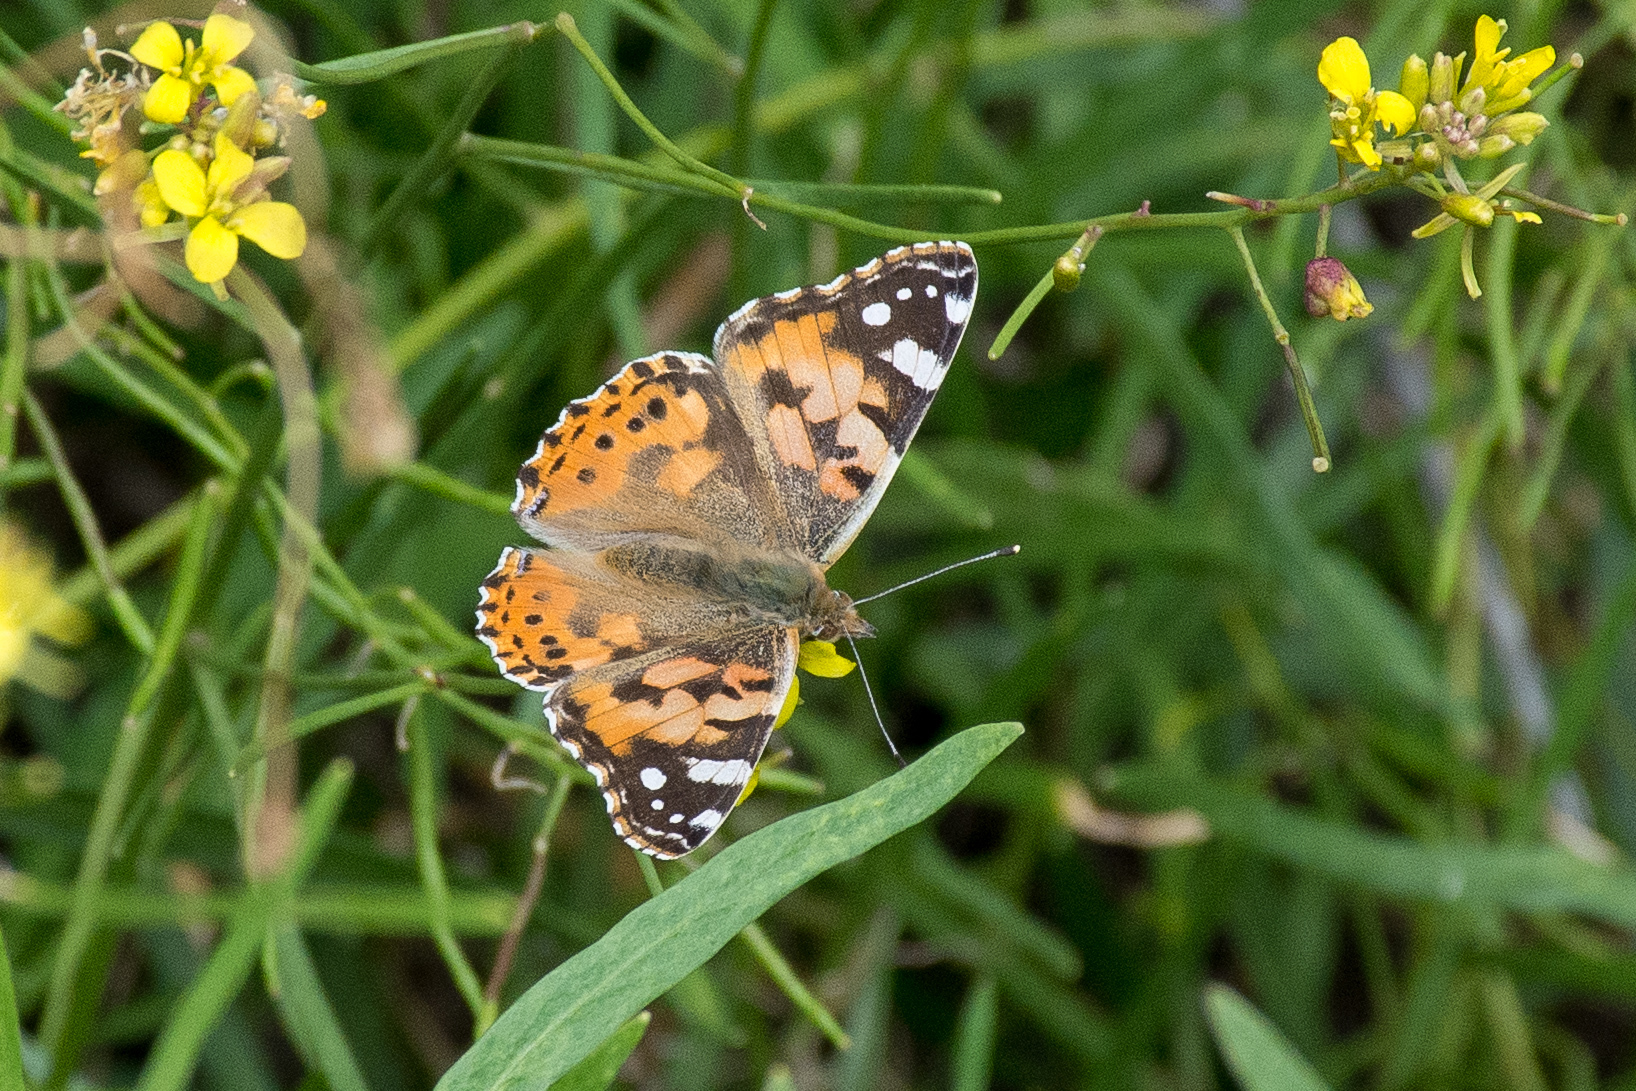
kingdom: Animalia
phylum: Arthropoda
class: Insecta
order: Lepidoptera
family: Nymphalidae
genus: Vanessa
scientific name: Vanessa cardui
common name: Painted lady
